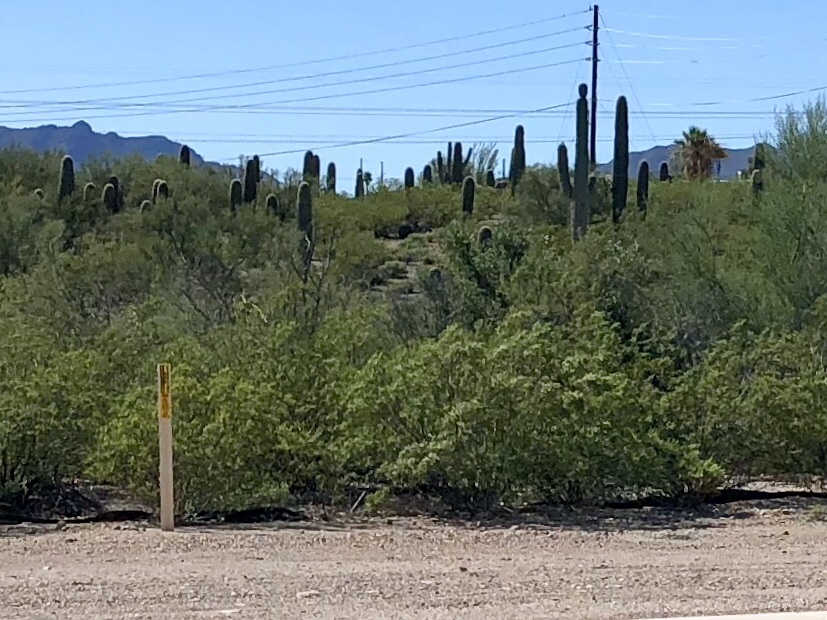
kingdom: Plantae
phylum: Tracheophyta
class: Magnoliopsida
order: Zygophyllales
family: Zygophyllaceae
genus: Larrea
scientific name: Larrea tridentata
